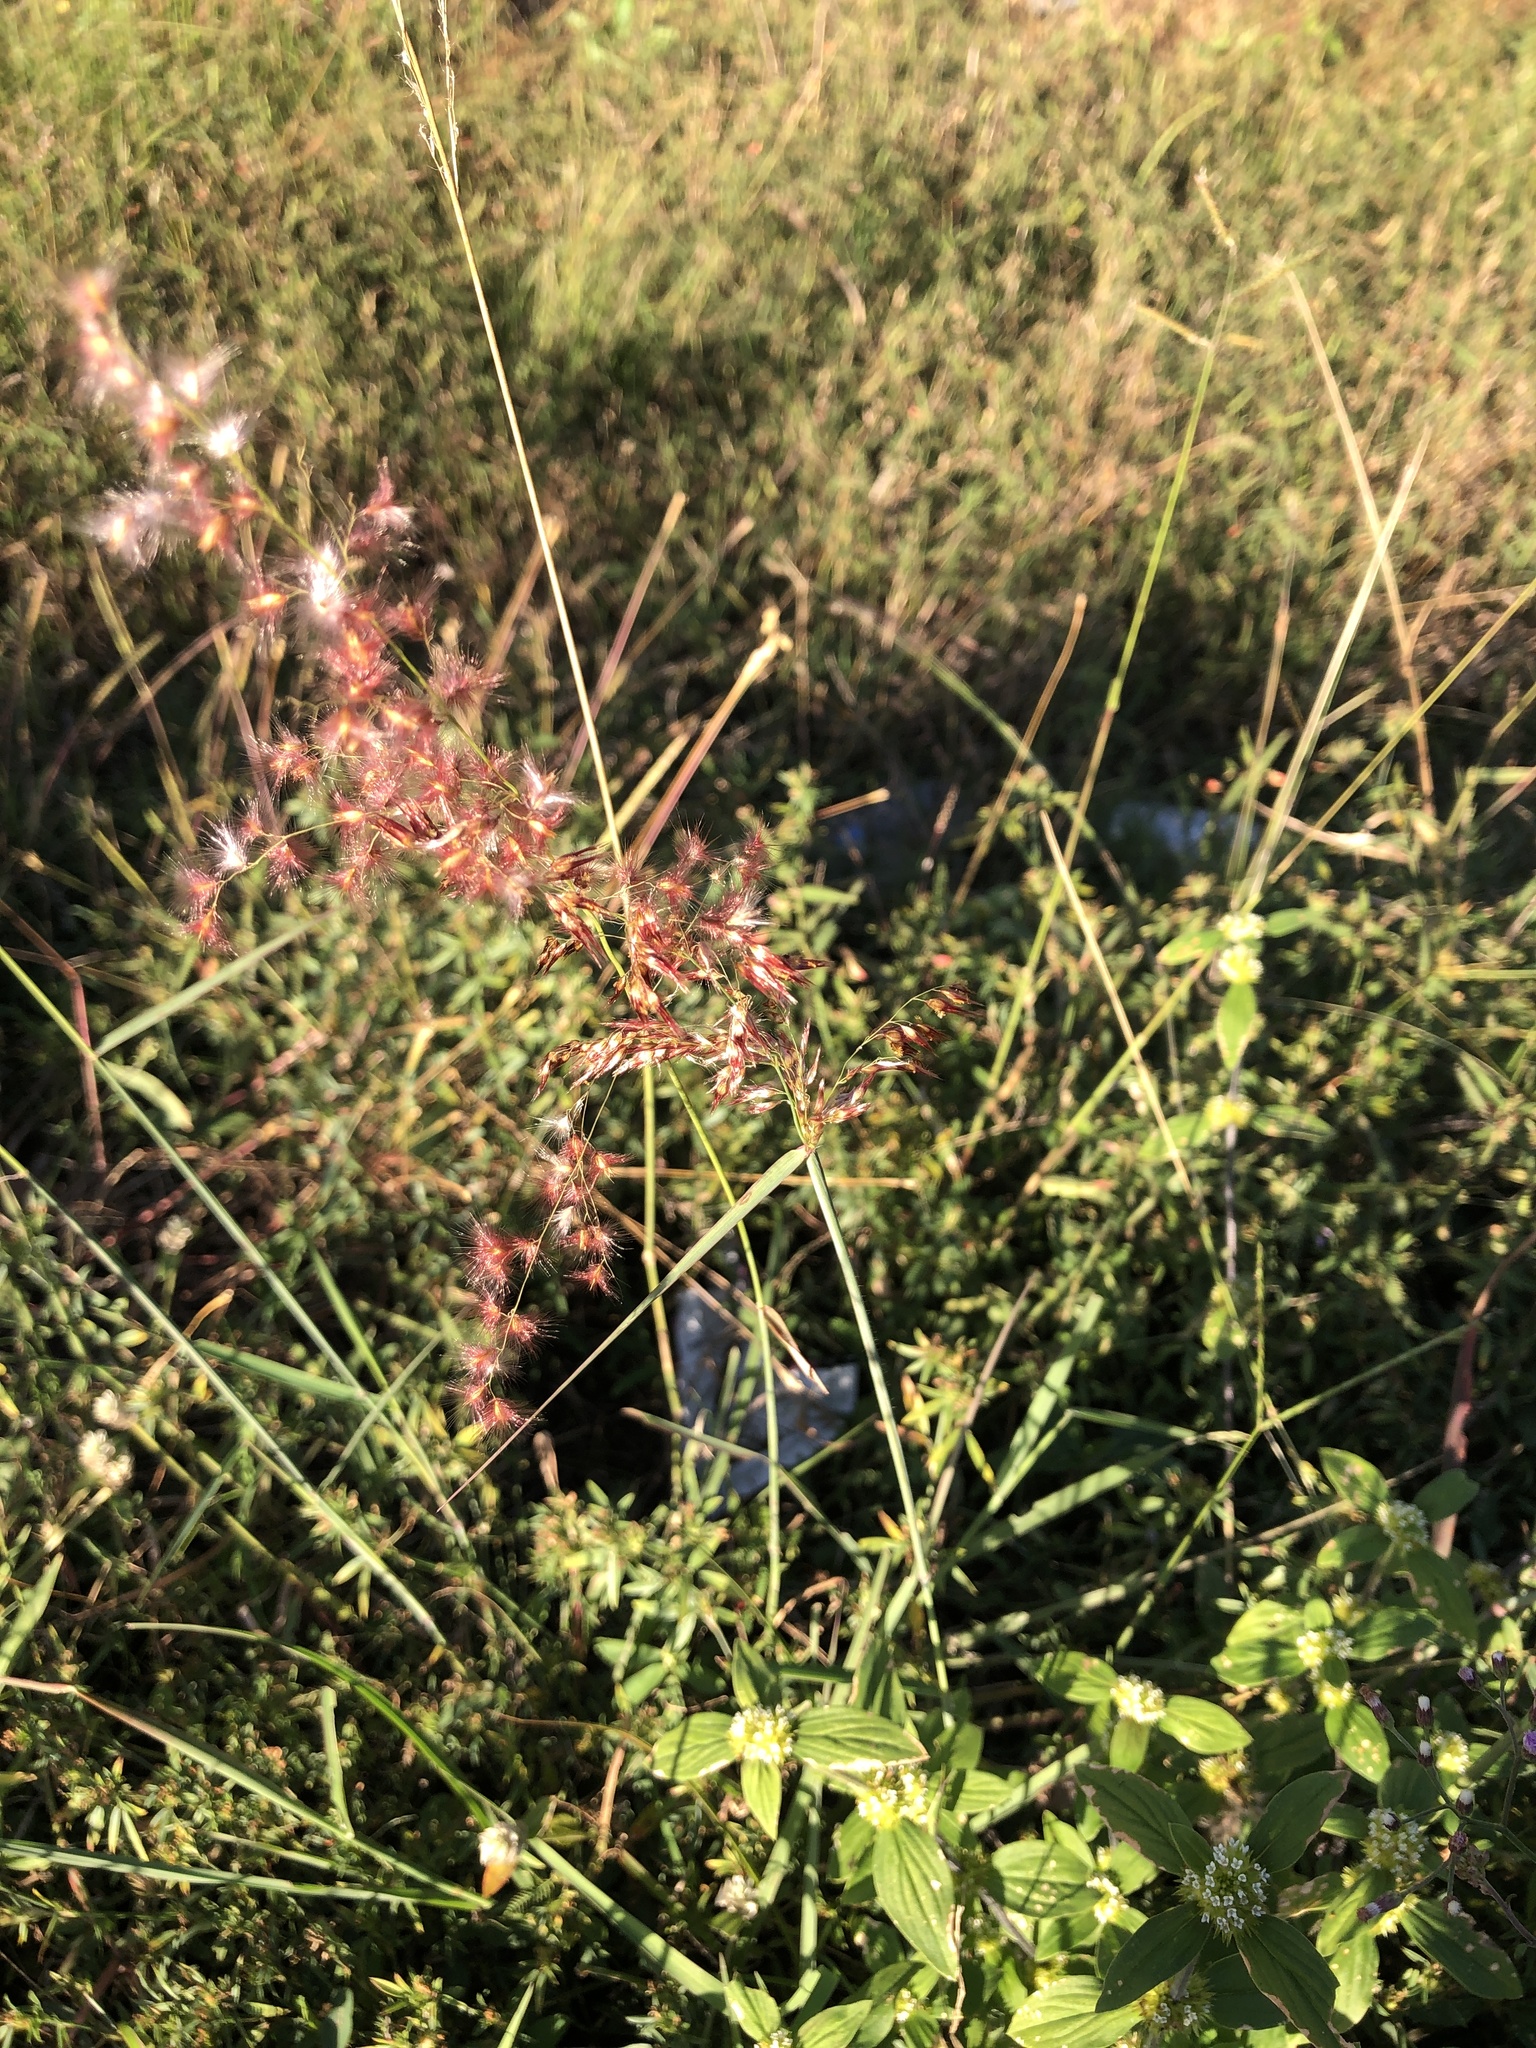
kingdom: Plantae
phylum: Tracheophyta
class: Liliopsida
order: Poales
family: Poaceae
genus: Melinis
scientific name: Melinis repens
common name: Rose natal grass
